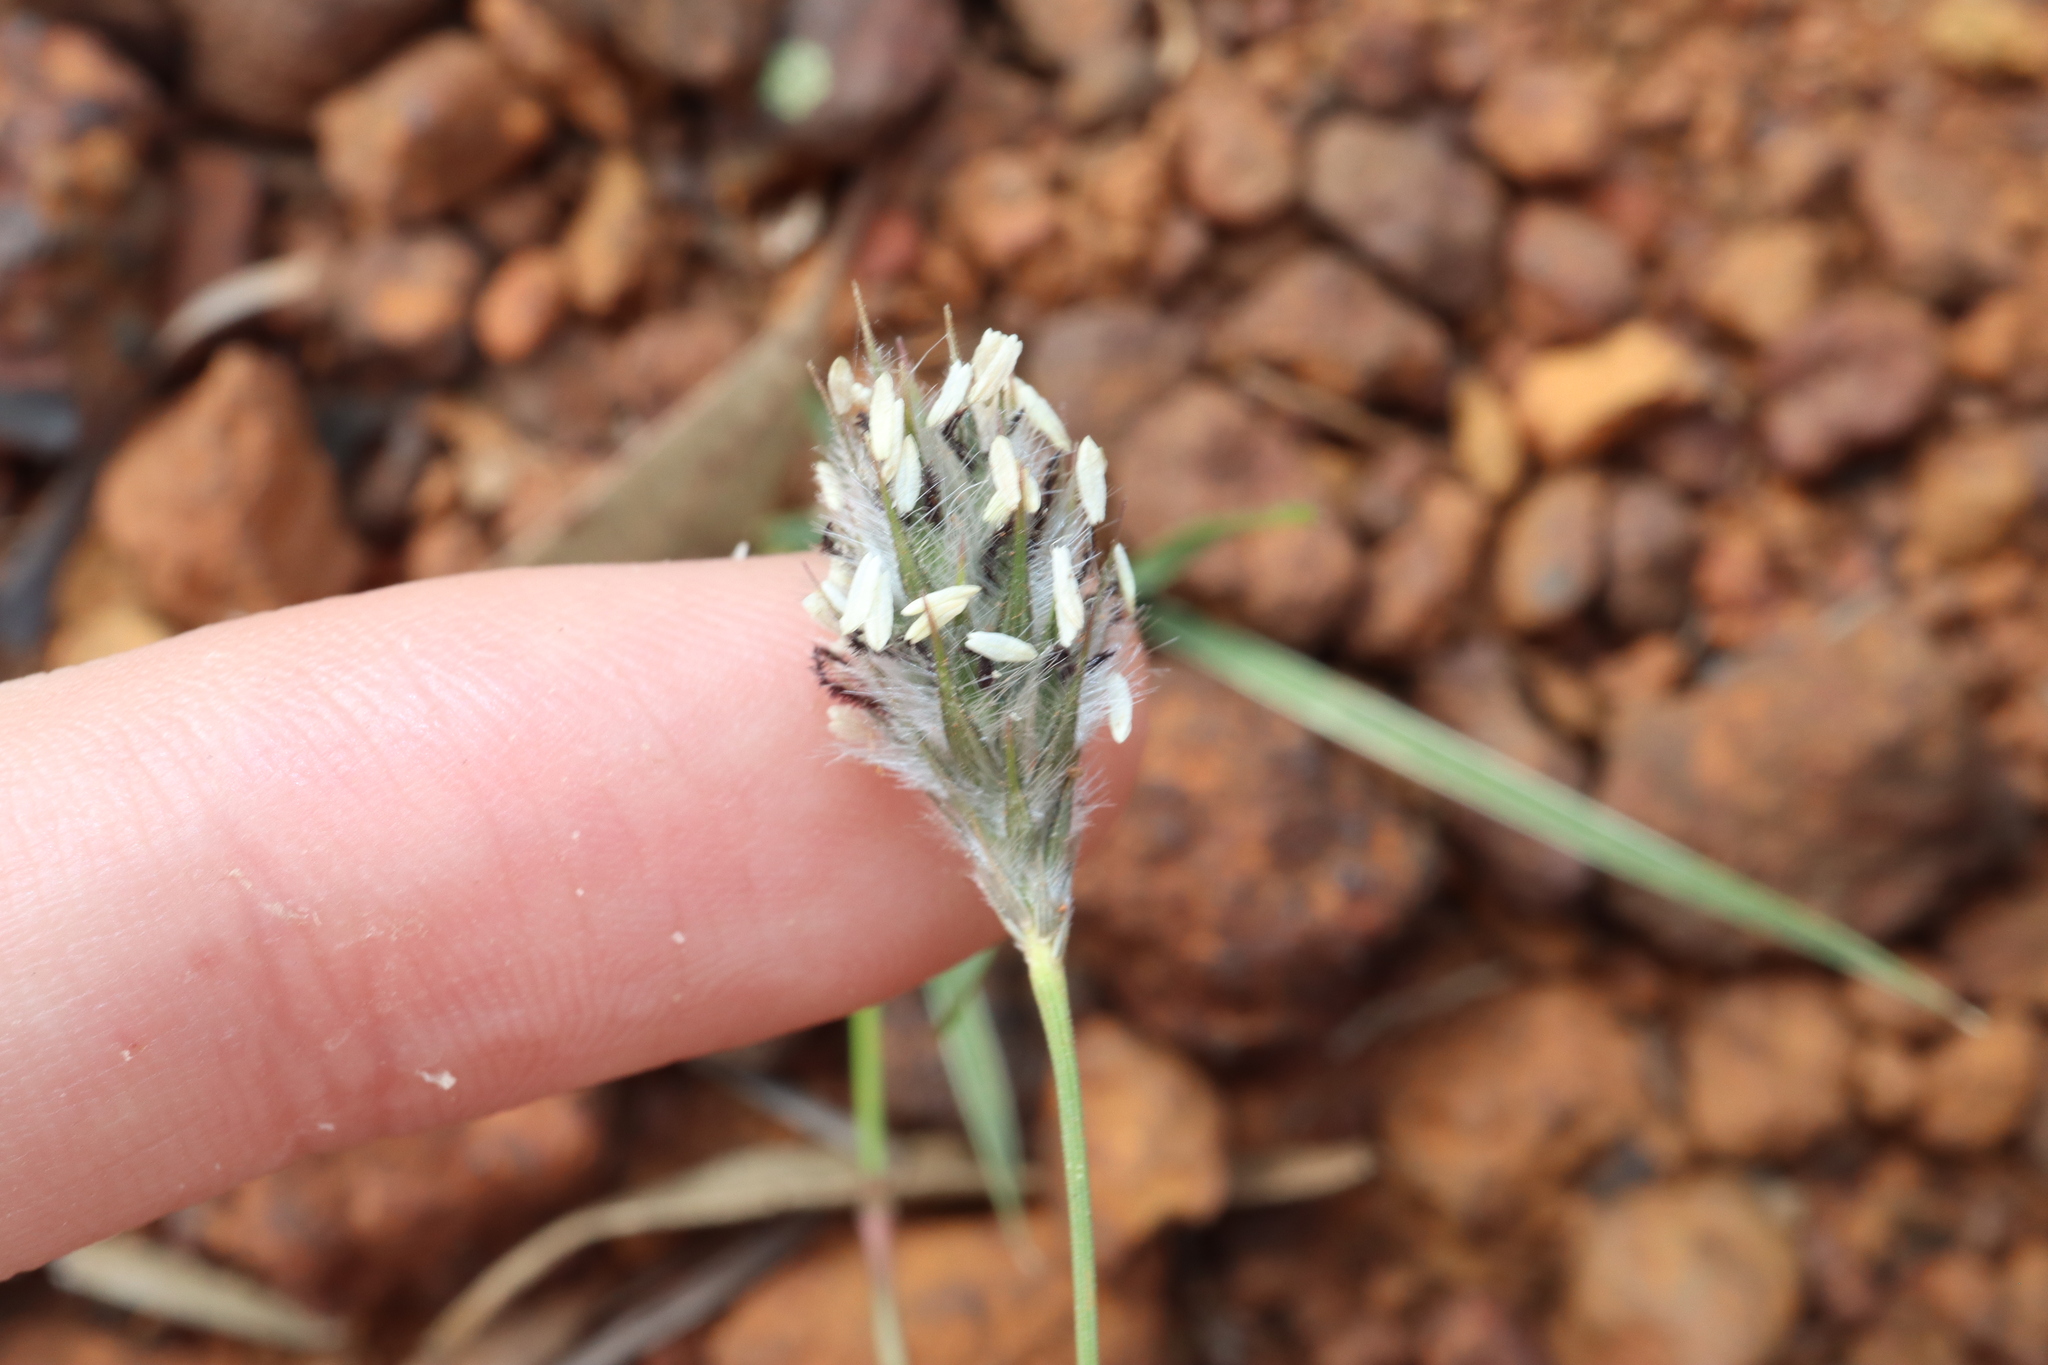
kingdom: Plantae
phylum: Tracheophyta
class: Liliopsida
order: Poales
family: Poaceae
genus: Neurachne
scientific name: Neurachne alopecuroidea
